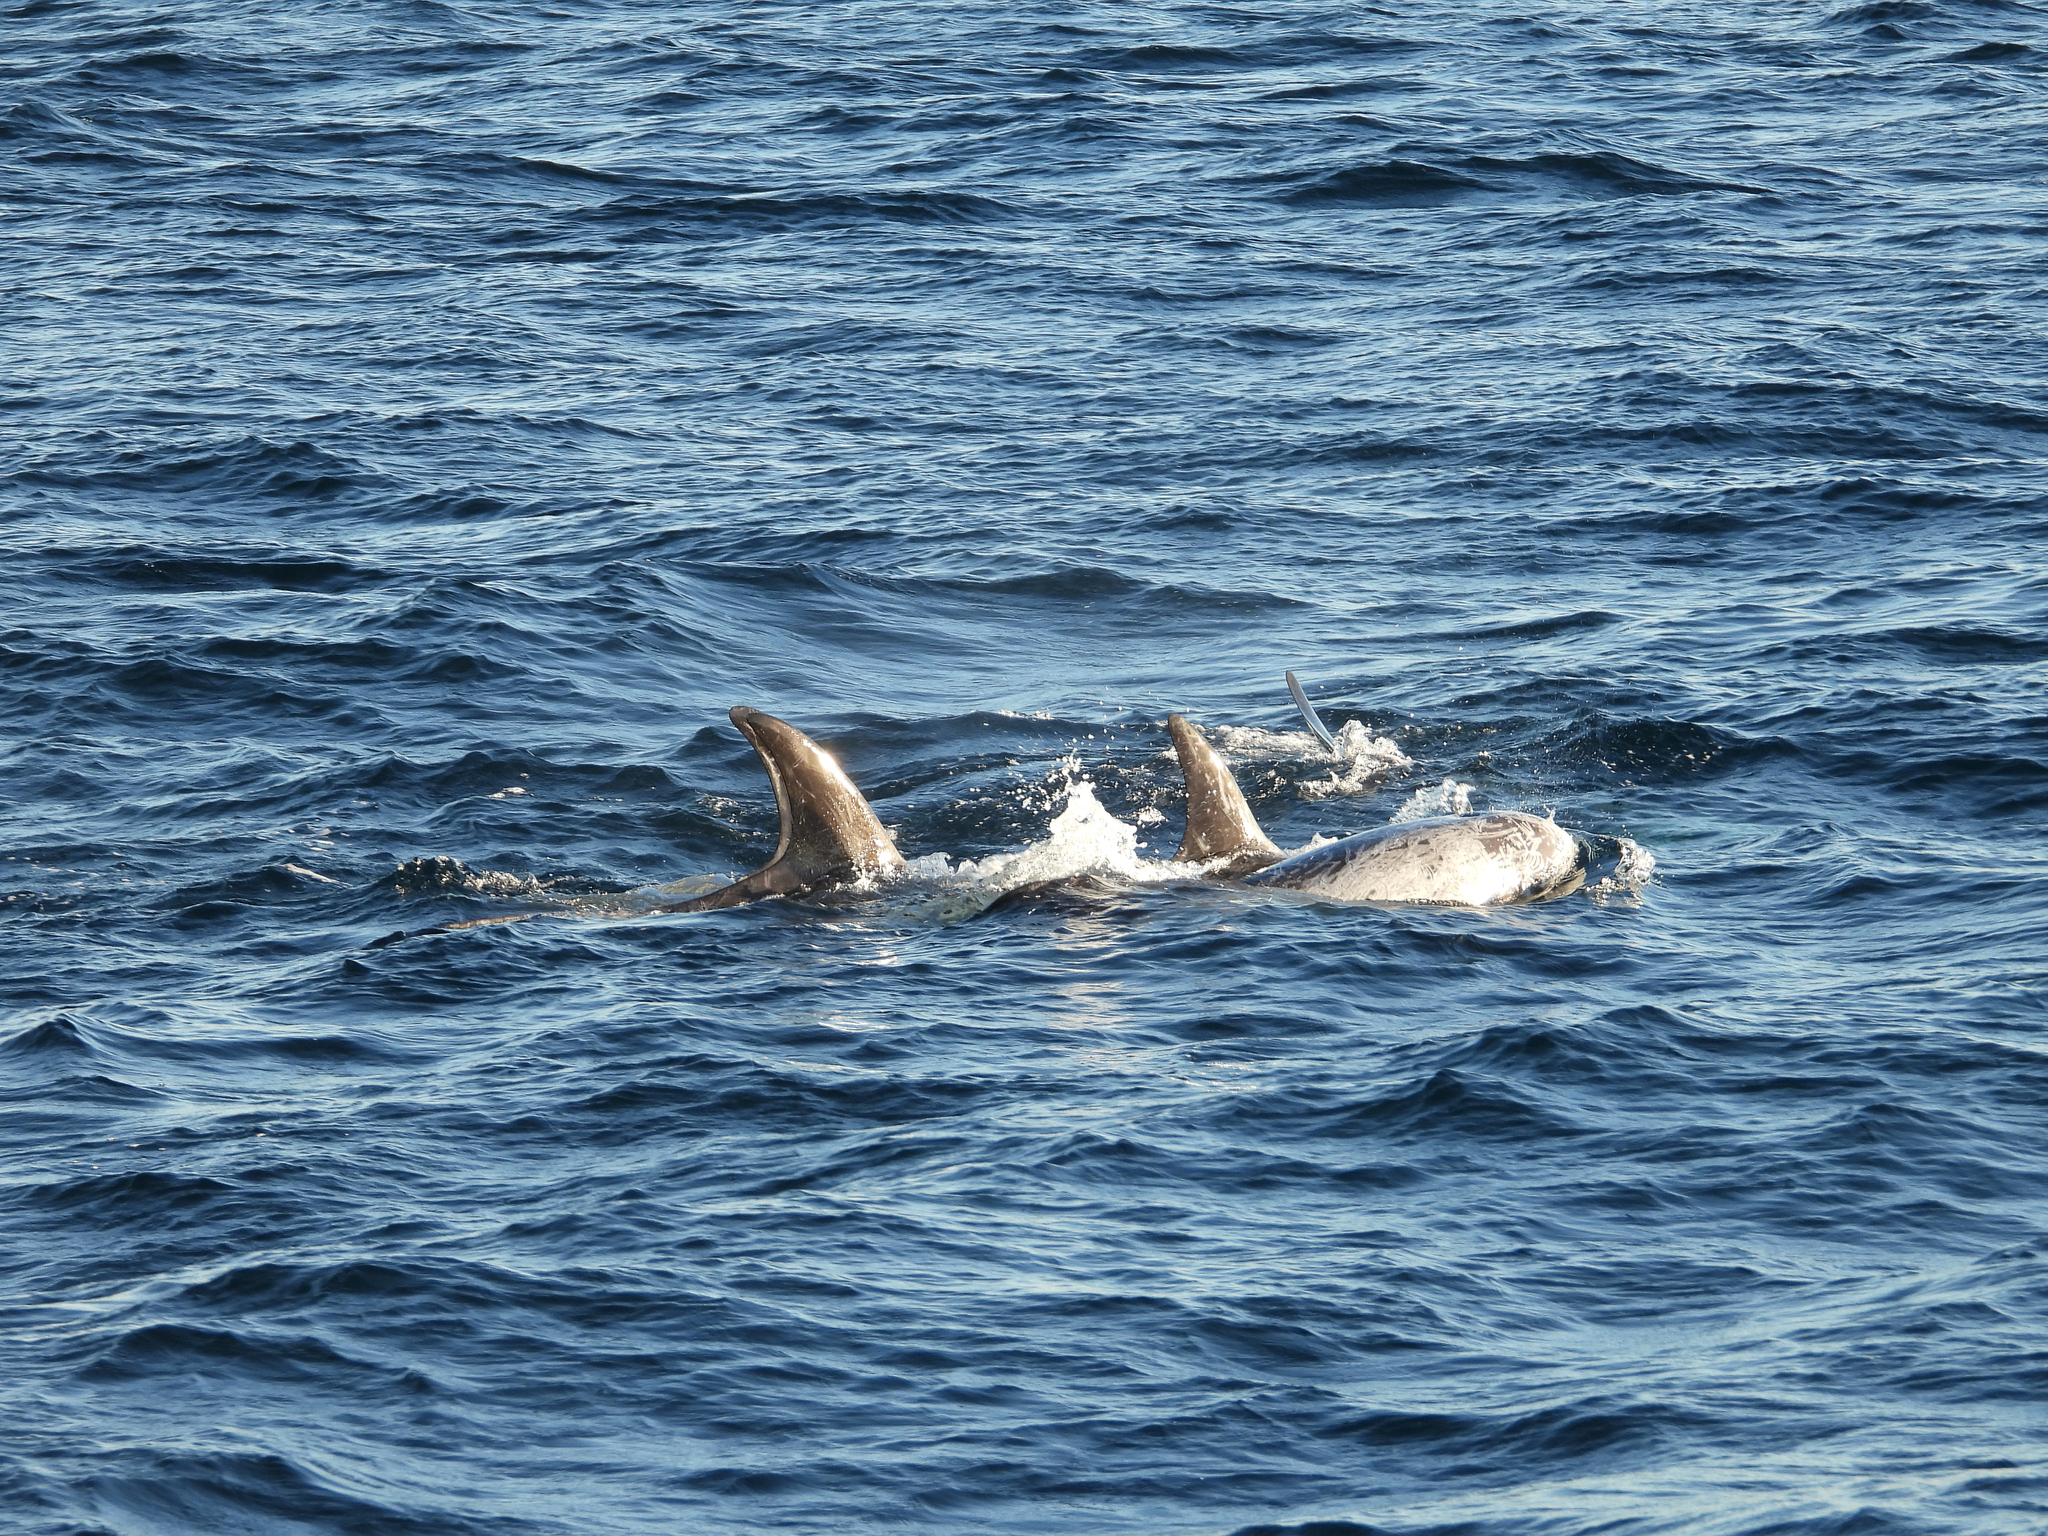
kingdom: Animalia
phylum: Chordata
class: Mammalia
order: Cetacea
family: Delphinidae
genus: Grampus
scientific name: Grampus griseus
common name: Risso's dolphin
